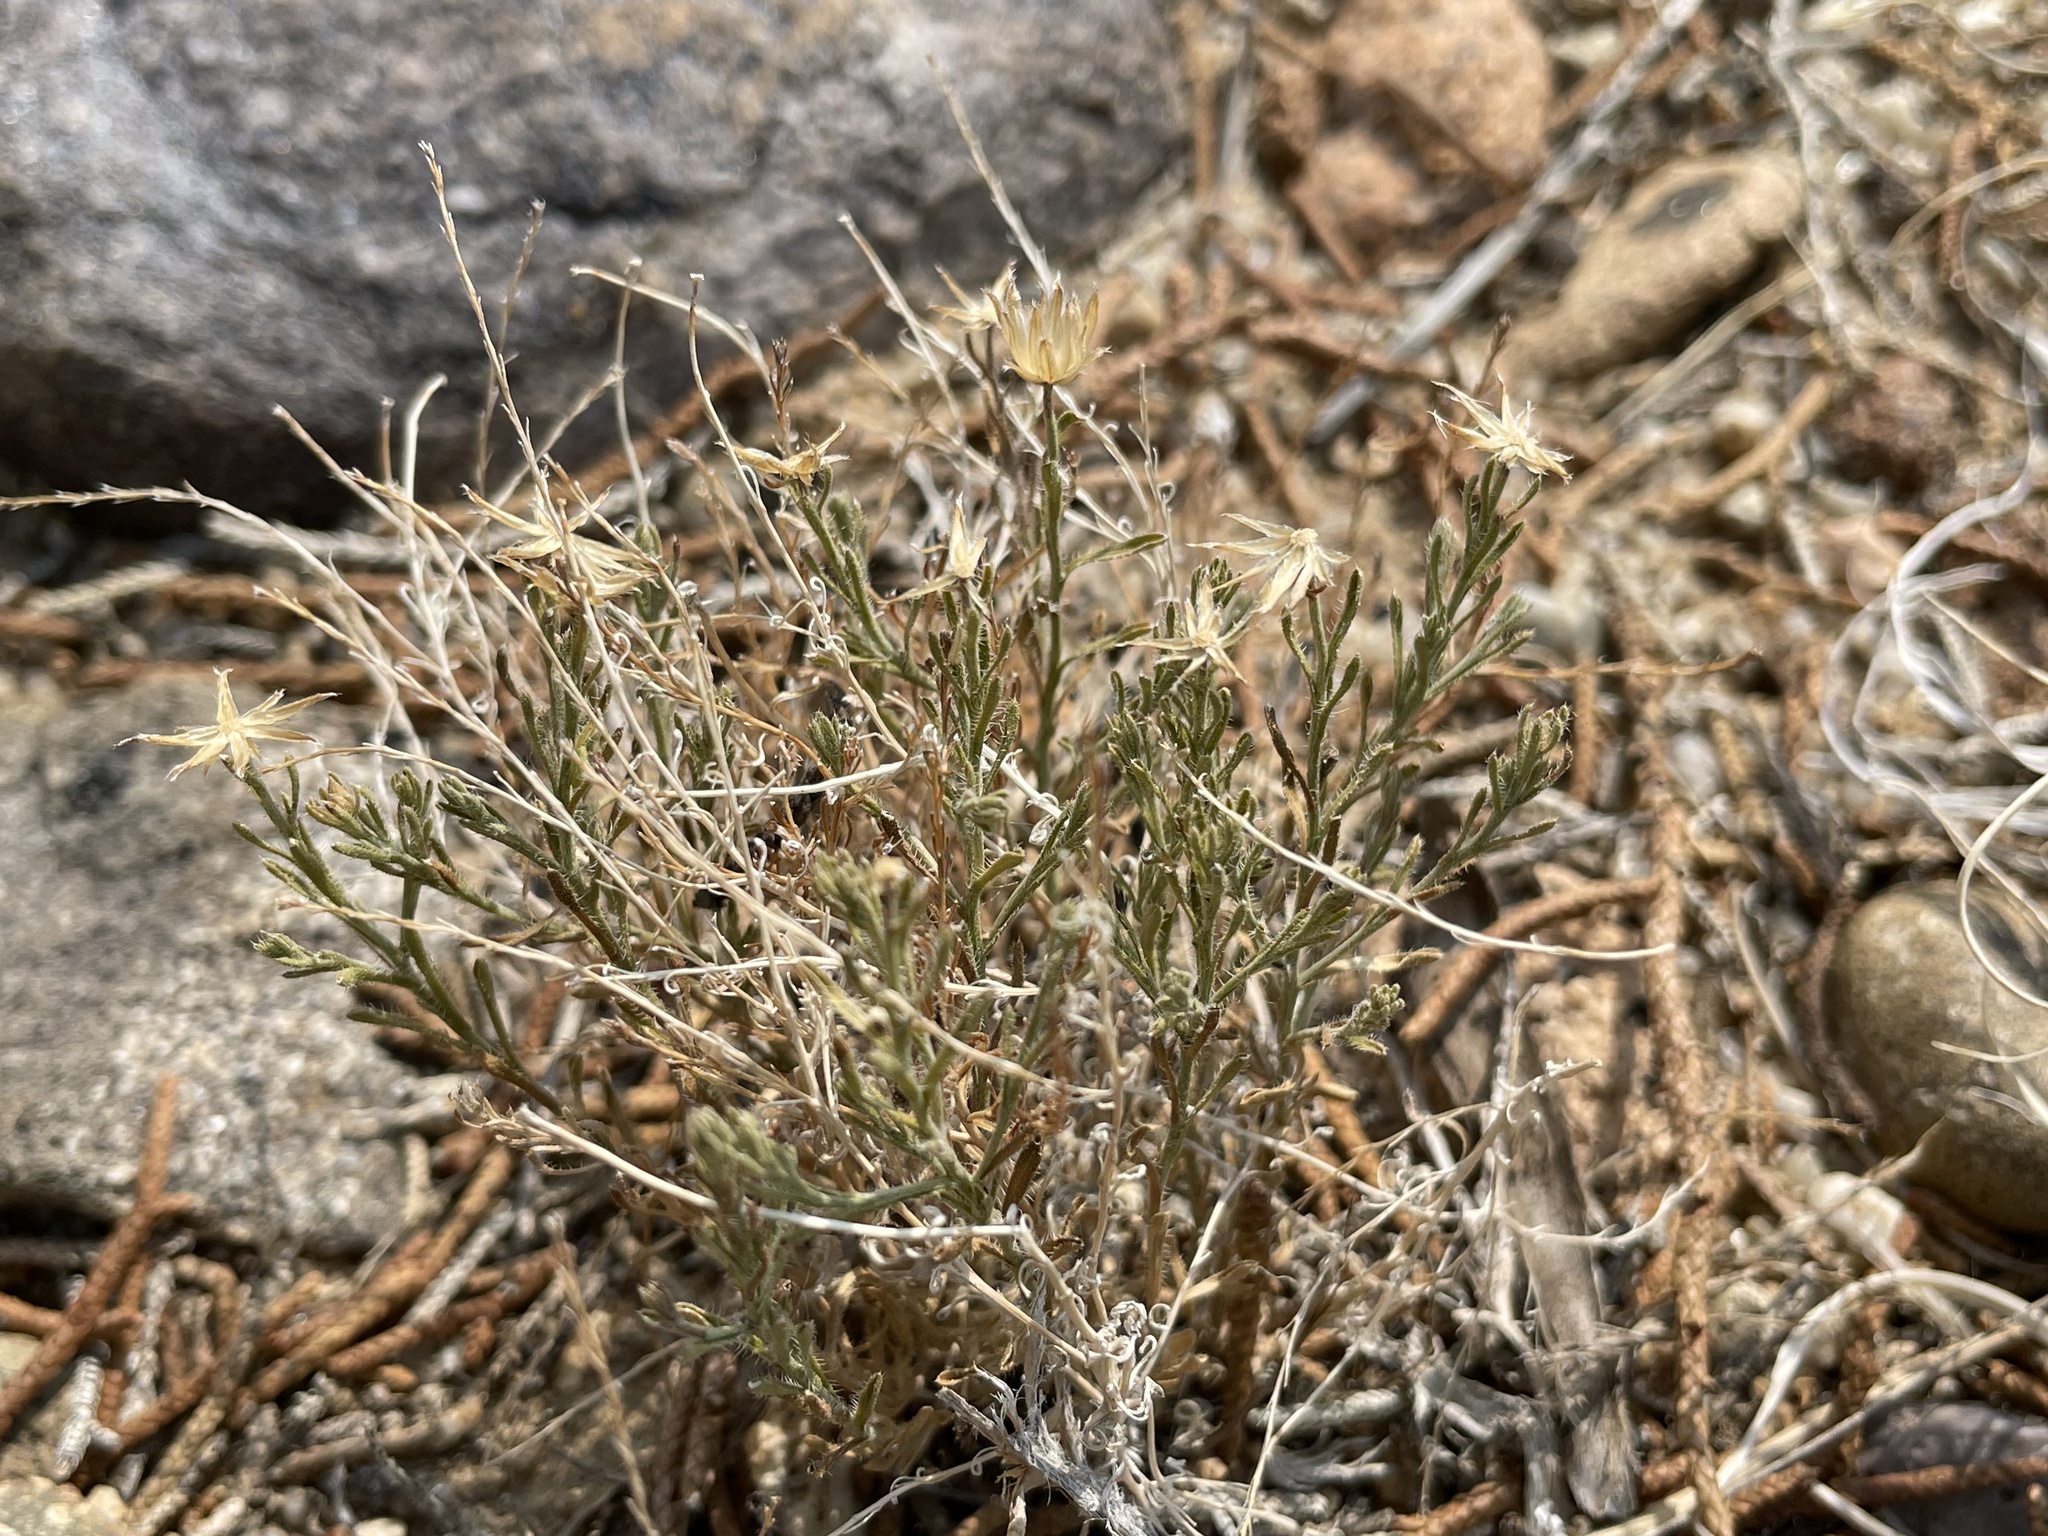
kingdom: Plantae
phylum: Tracheophyta
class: Magnoliopsida
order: Asterales
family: Asteraceae
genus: Chaetopappa
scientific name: Chaetopappa ericoides
